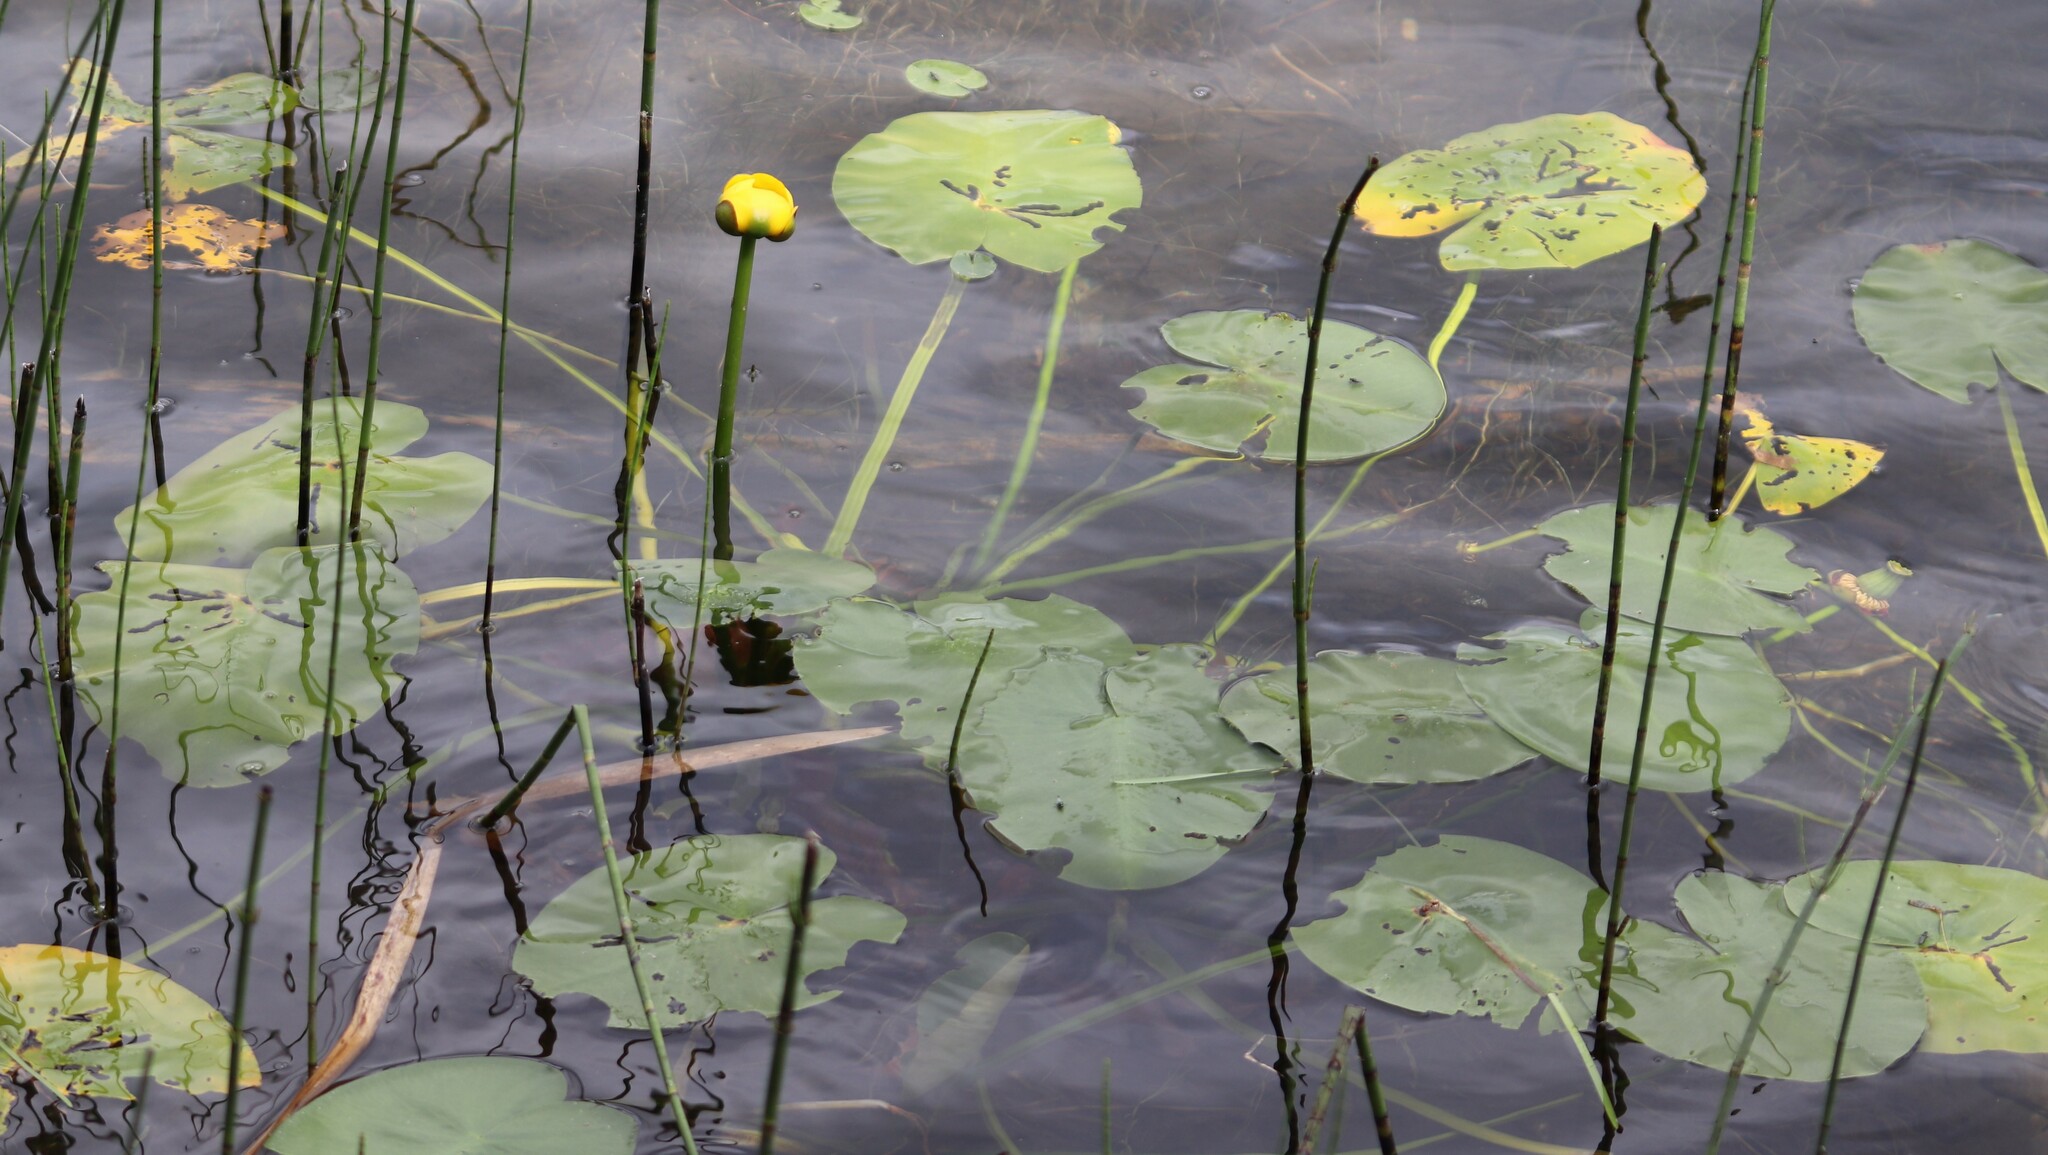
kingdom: Plantae
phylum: Tracheophyta
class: Magnoliopsida
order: Nymphaeales
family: Nymphaeaceae
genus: Nuphar
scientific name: Nuphar variegata
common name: Beaver-root
